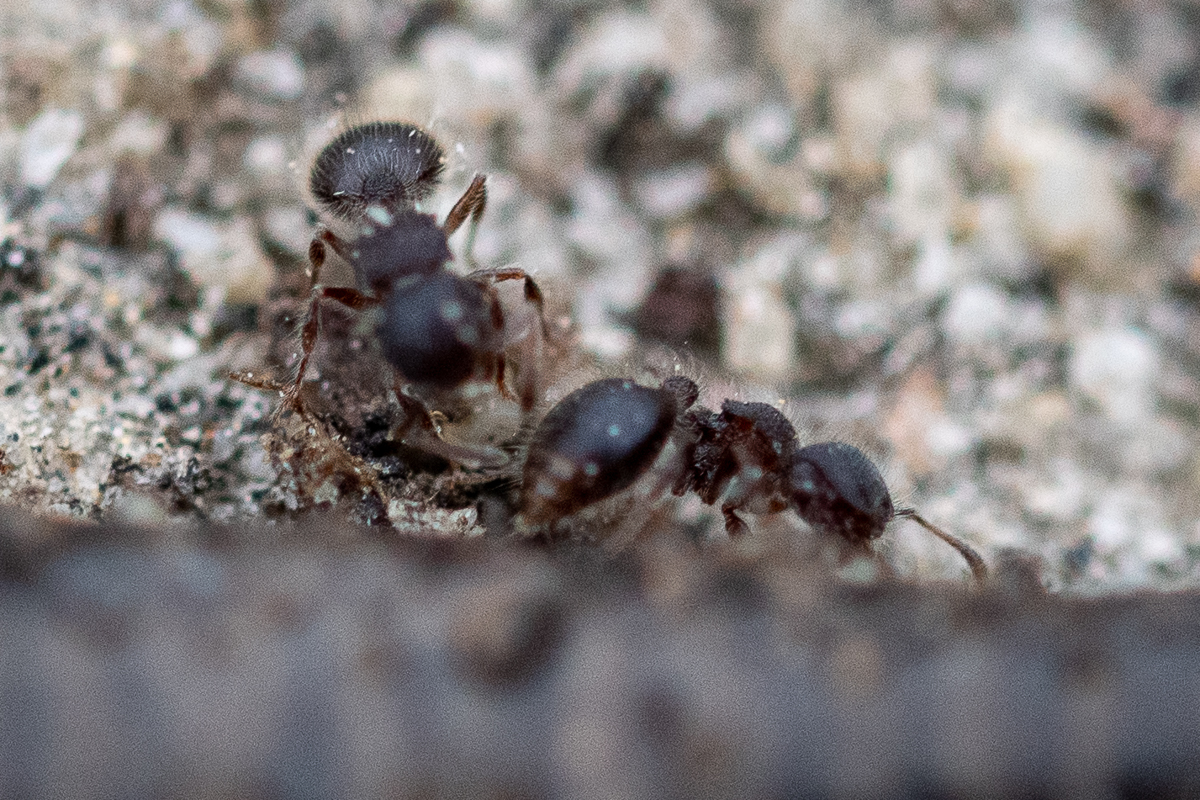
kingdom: Animalia
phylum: Arthropoda
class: Insecta
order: Hymenoptera
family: Formicidae
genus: Meranoplus
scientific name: Meranoplus peringueyi
